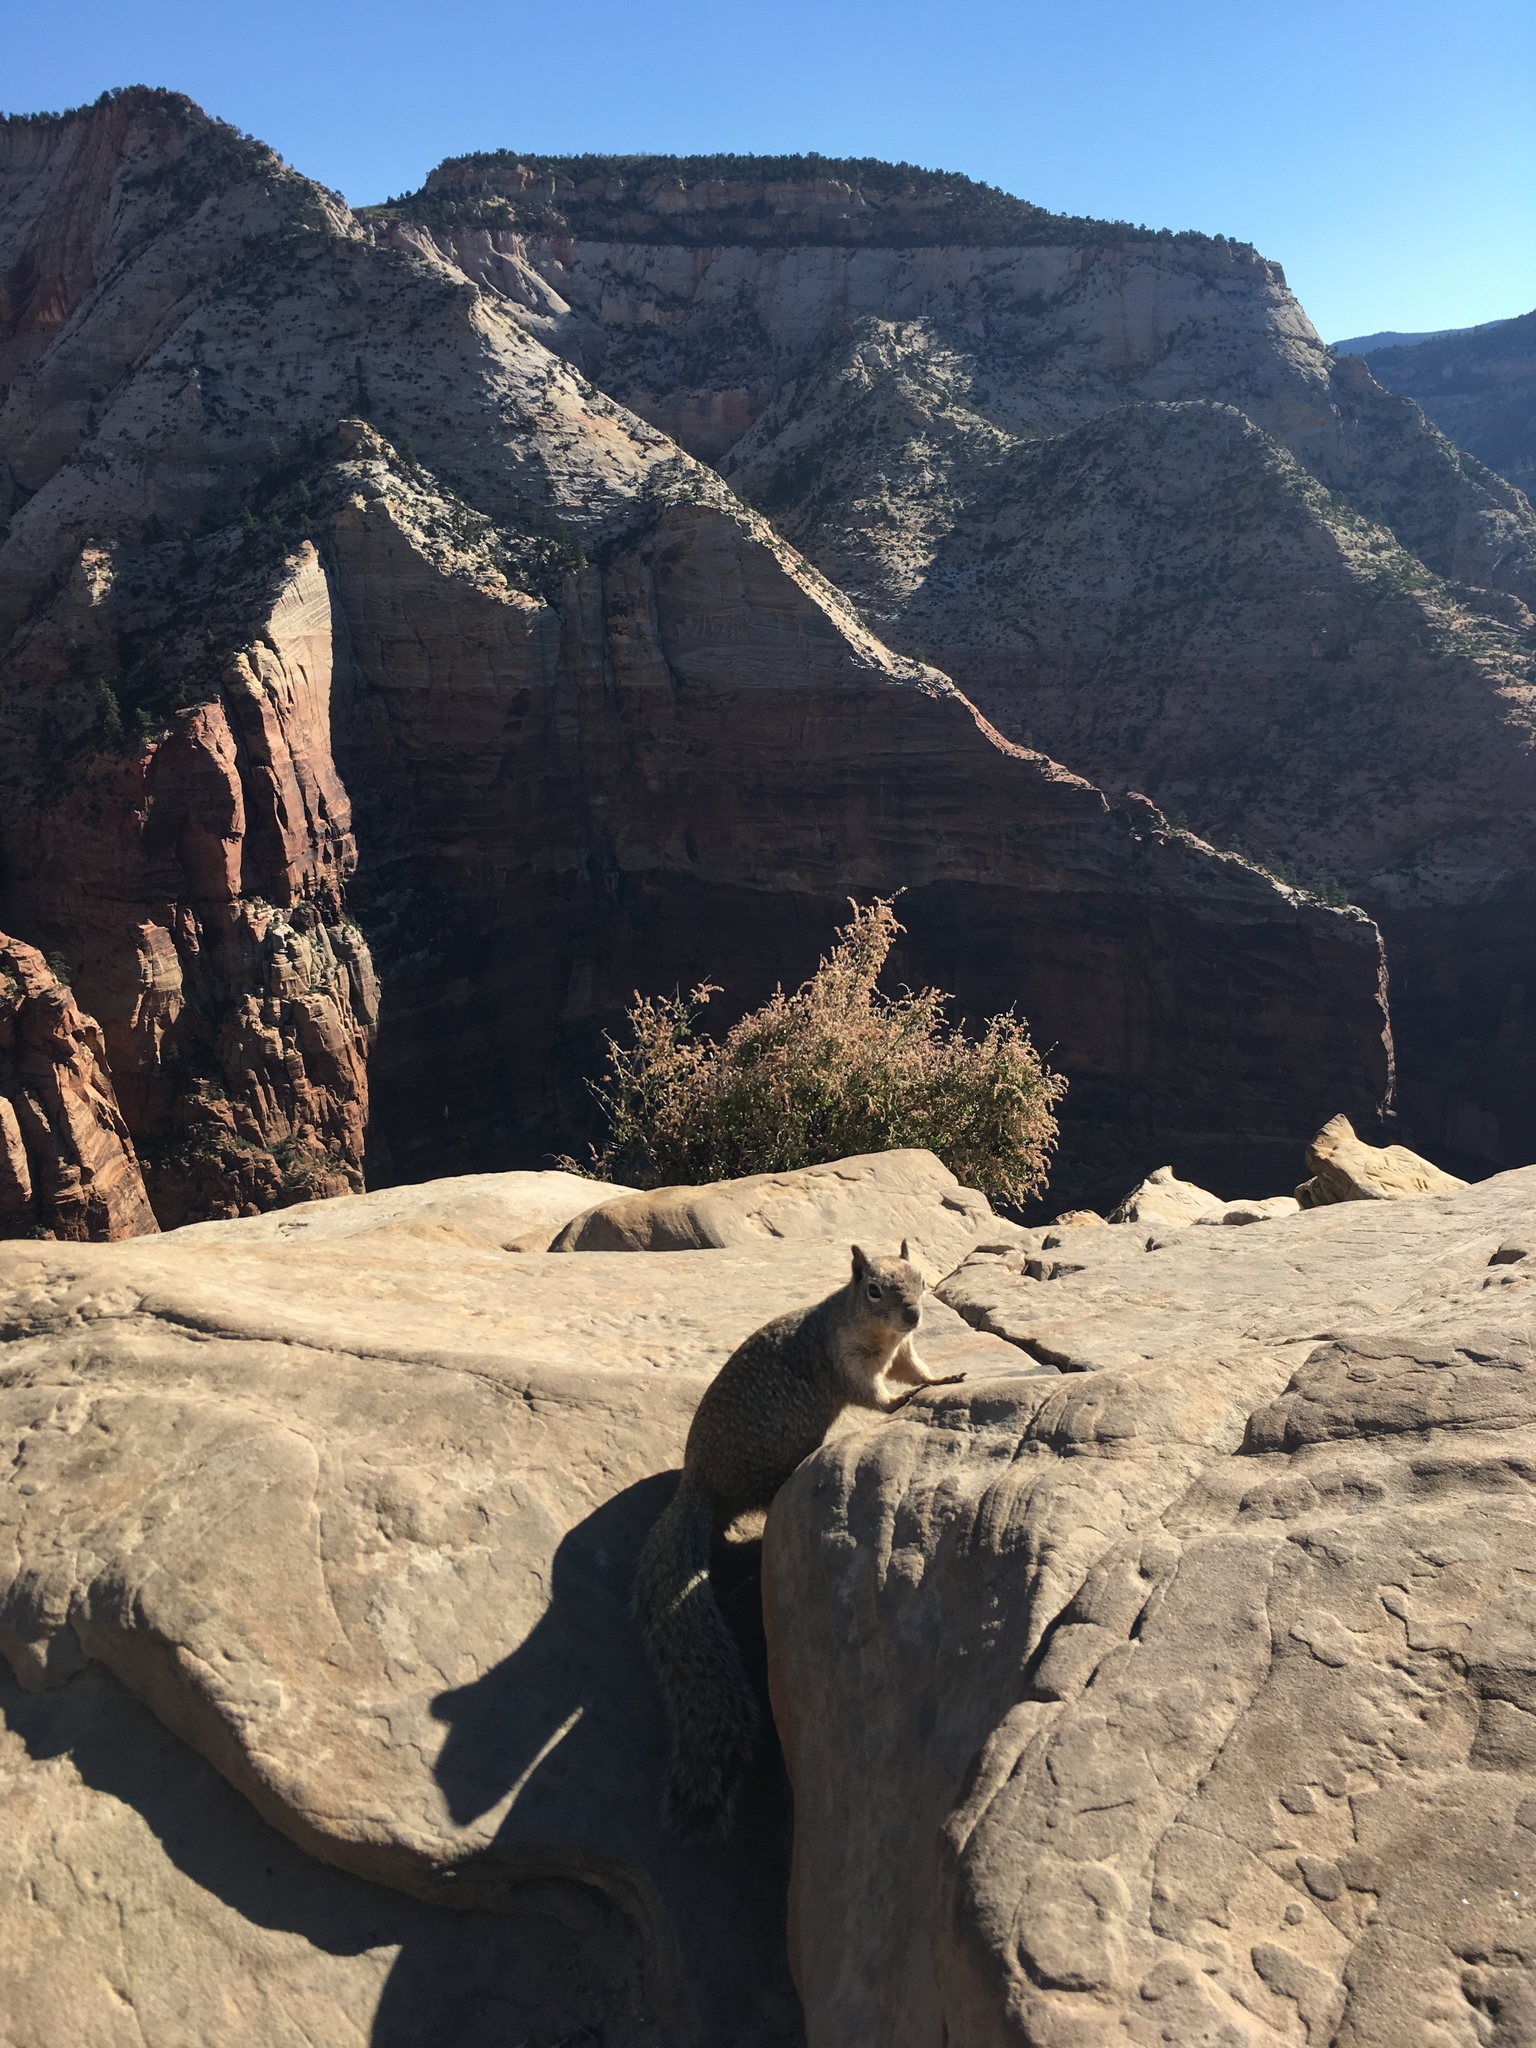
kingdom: Animalia
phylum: Chordata
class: Mammalia
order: Rodentia
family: Sciuridae
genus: Otospermophilus
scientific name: Otospermophilus variegatus
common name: Rock squirrel
